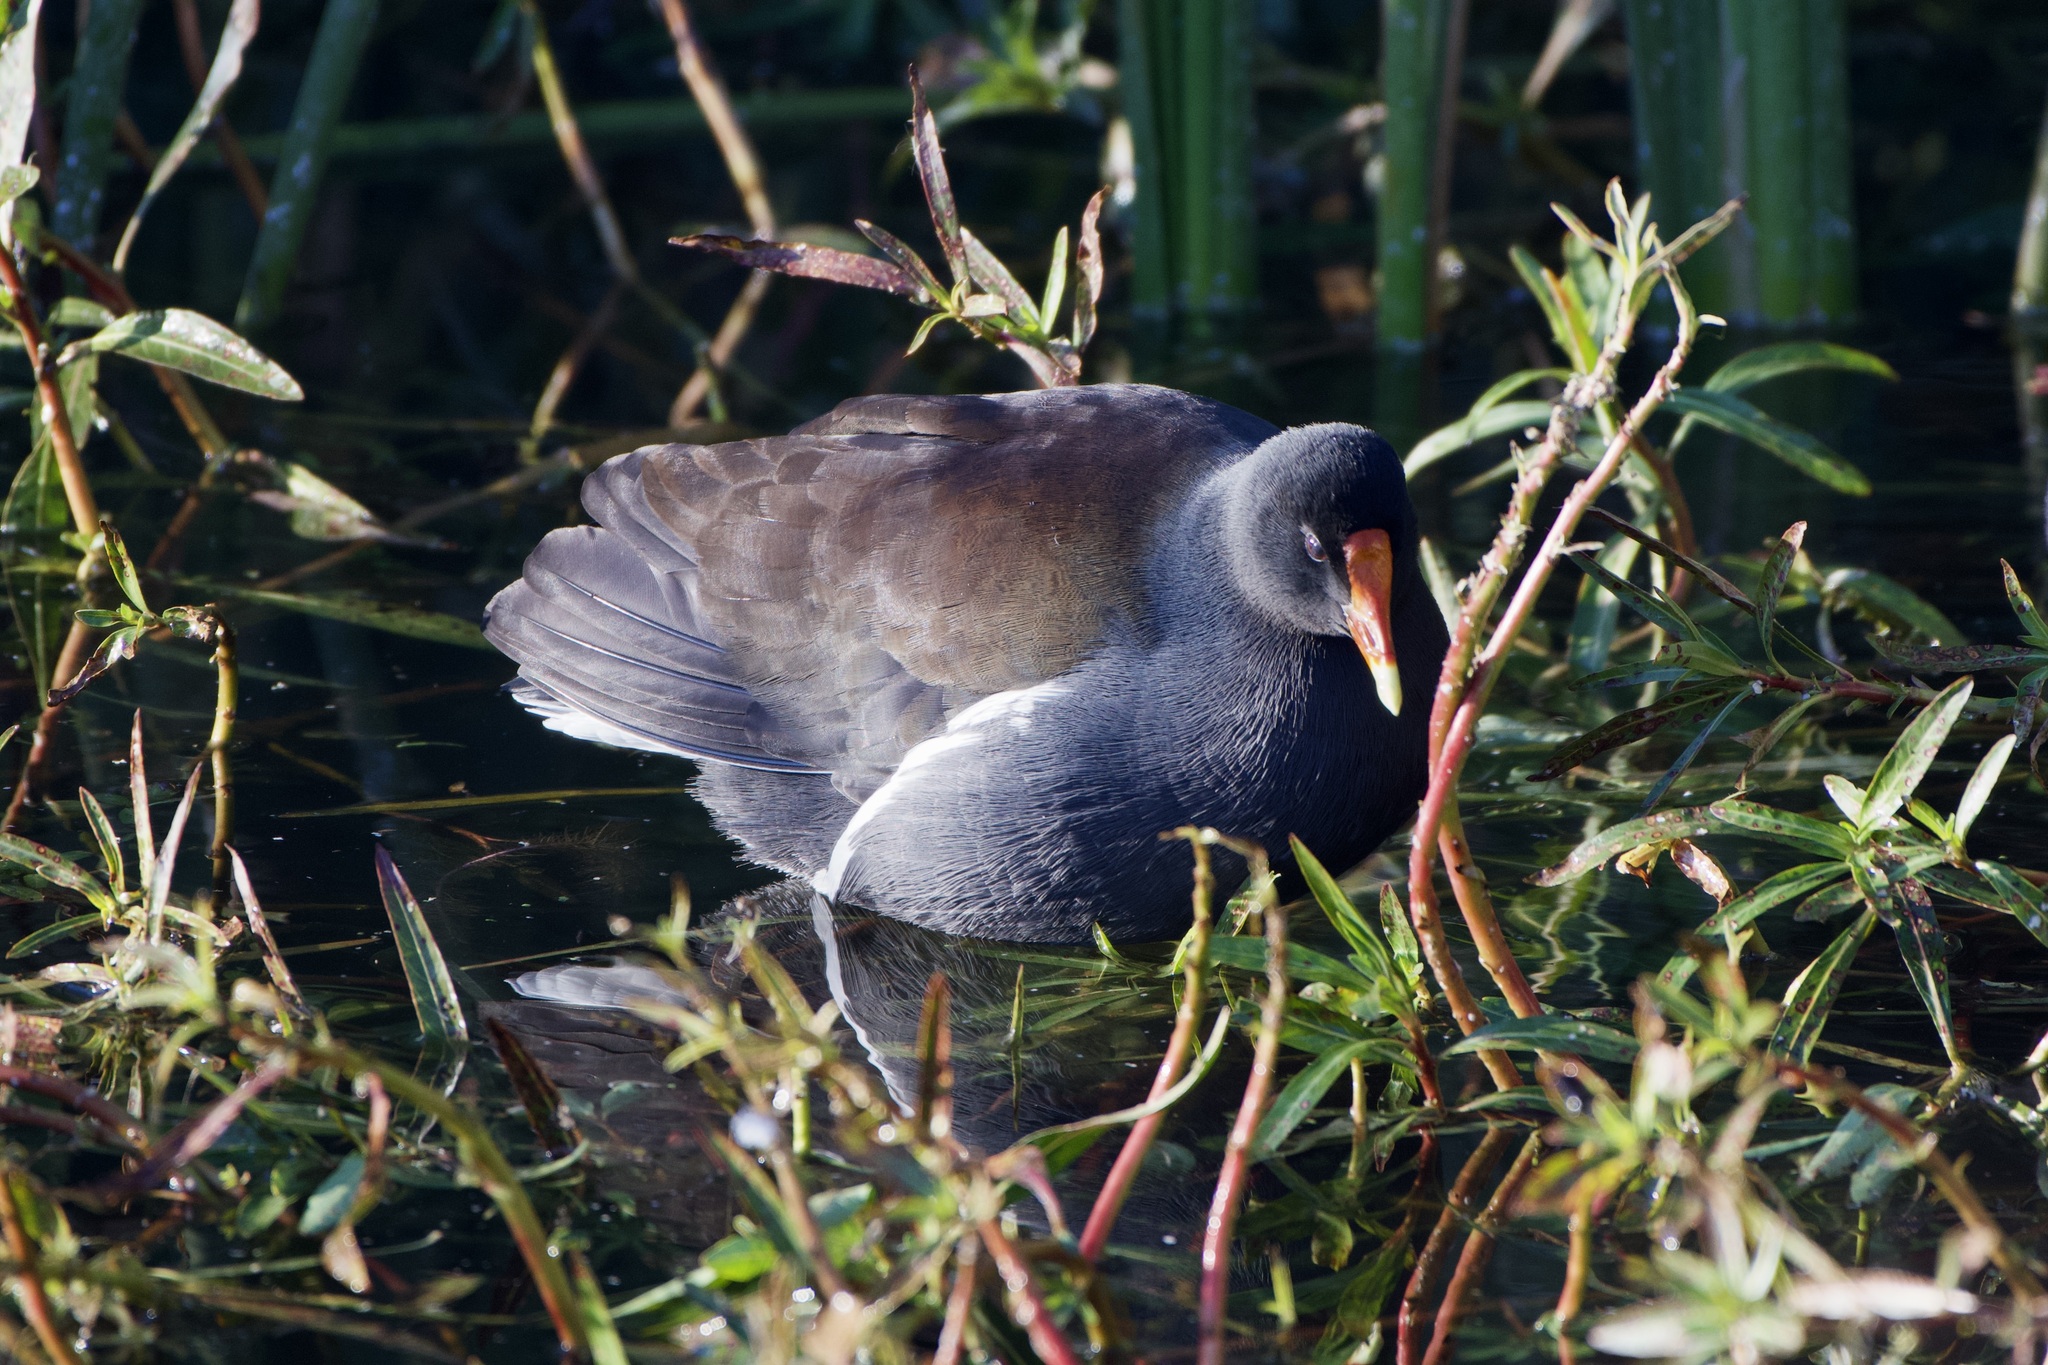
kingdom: Animalia
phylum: Chordata
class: Aves
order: Gruiformes
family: Rallidae
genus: Gallinula
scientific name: Gallinula chloropus
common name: Common moorhen
